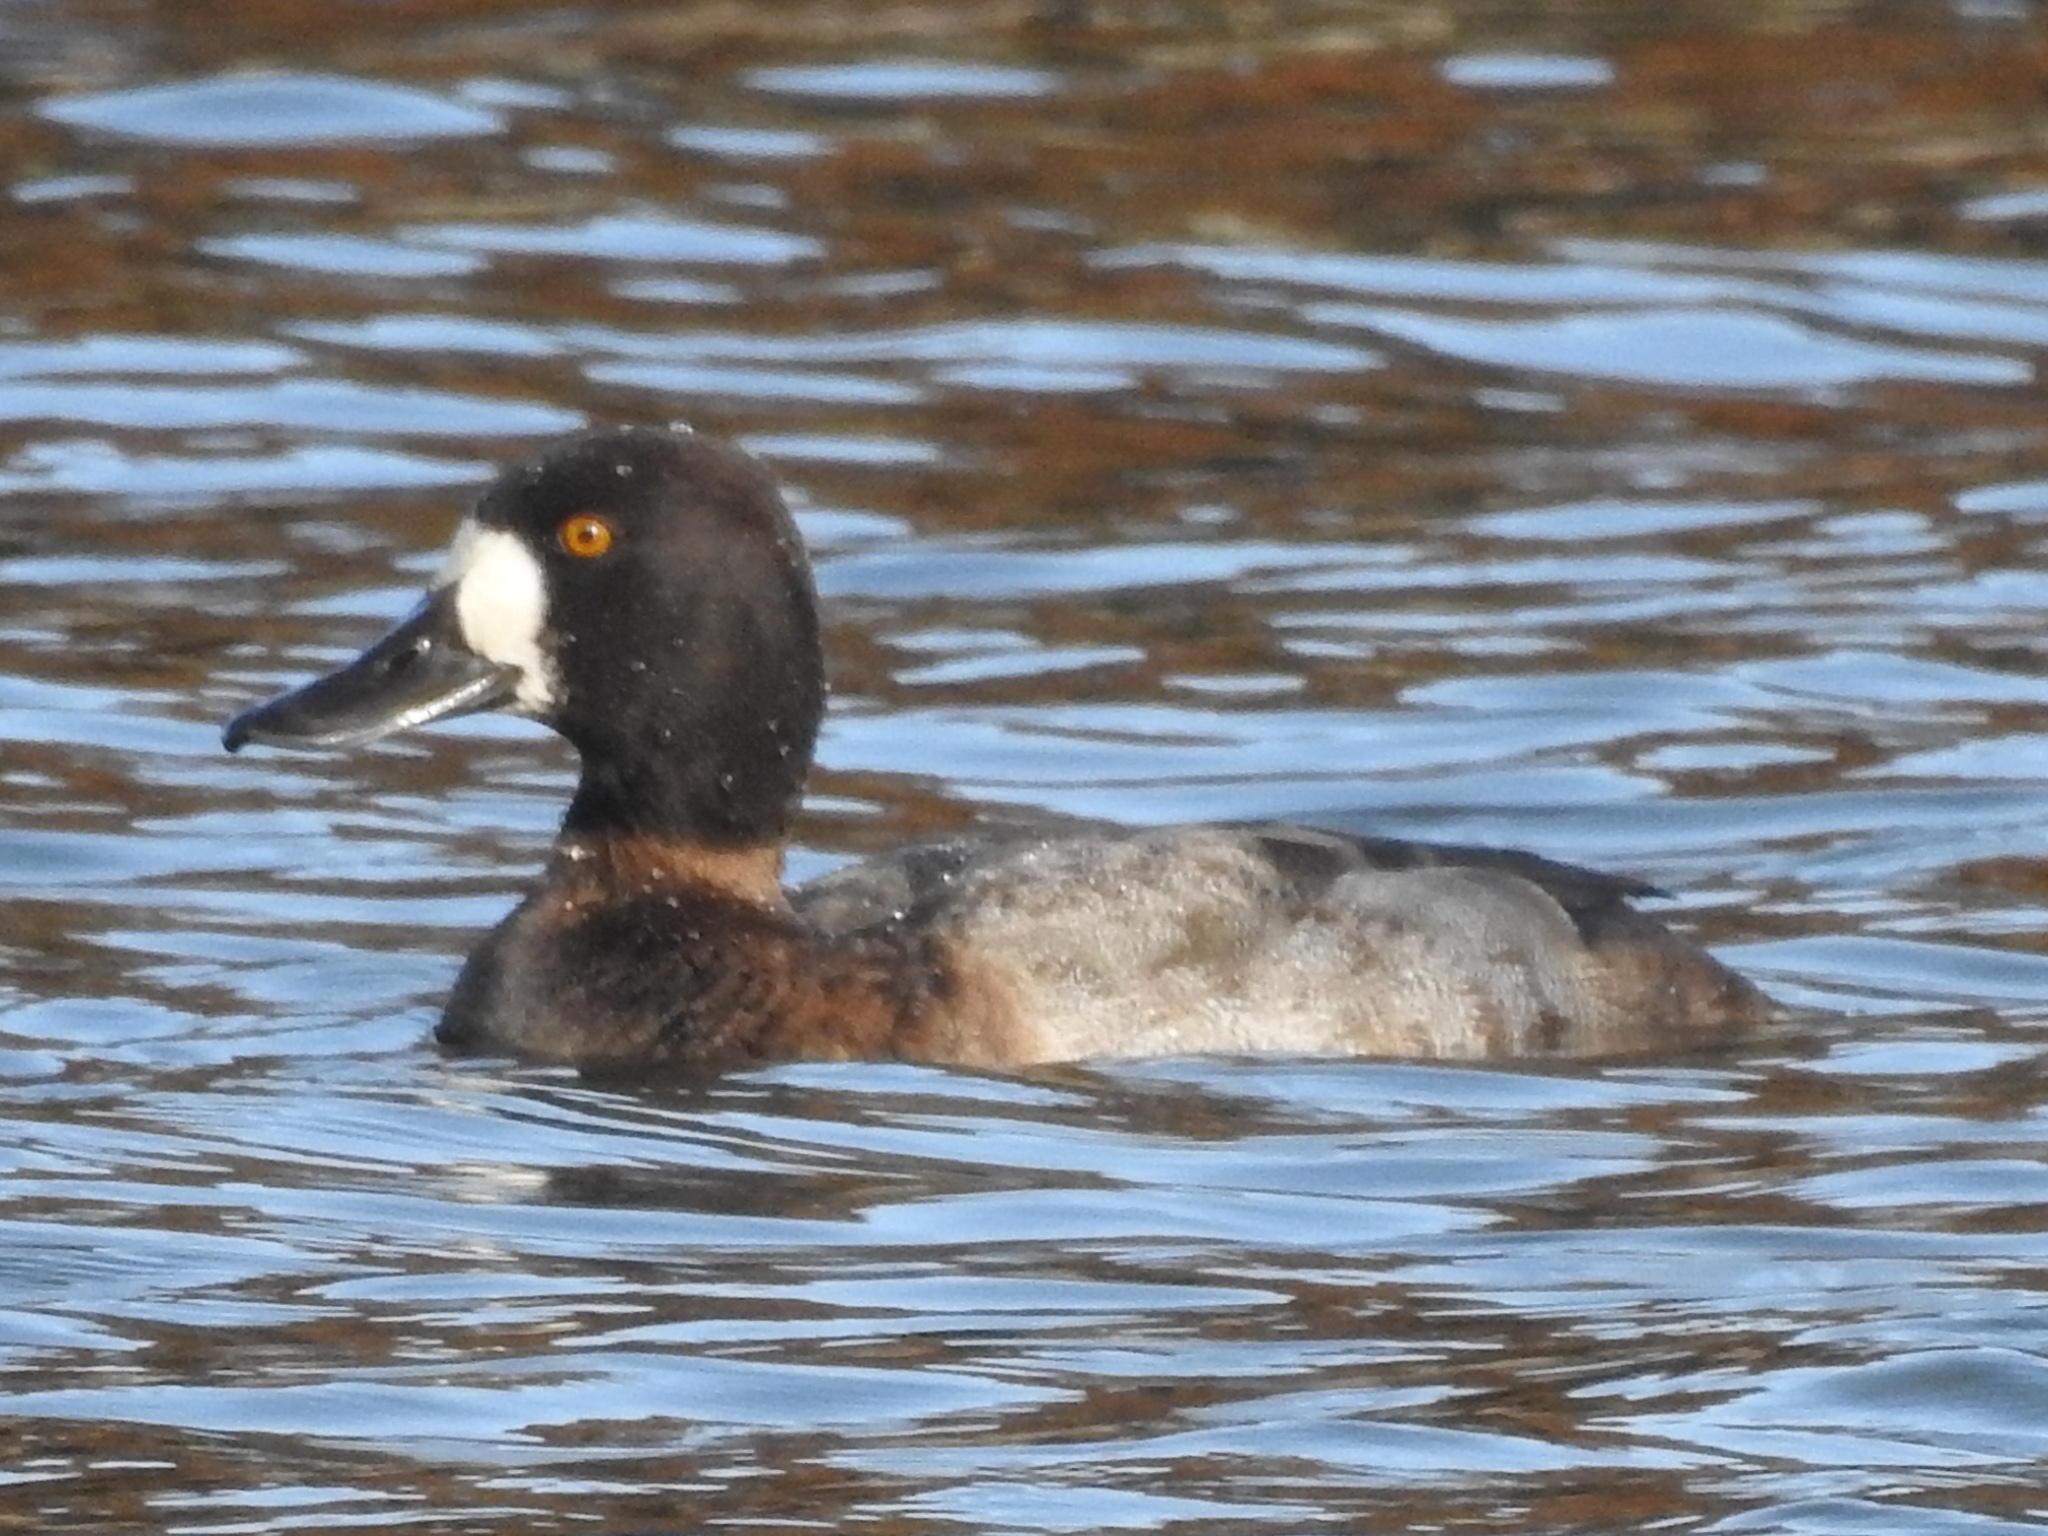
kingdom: Animalia
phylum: Chordata
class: Aves
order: Anseriformes
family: Anatidae
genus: Aythya
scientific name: Aythya marila
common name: Greater scaup
